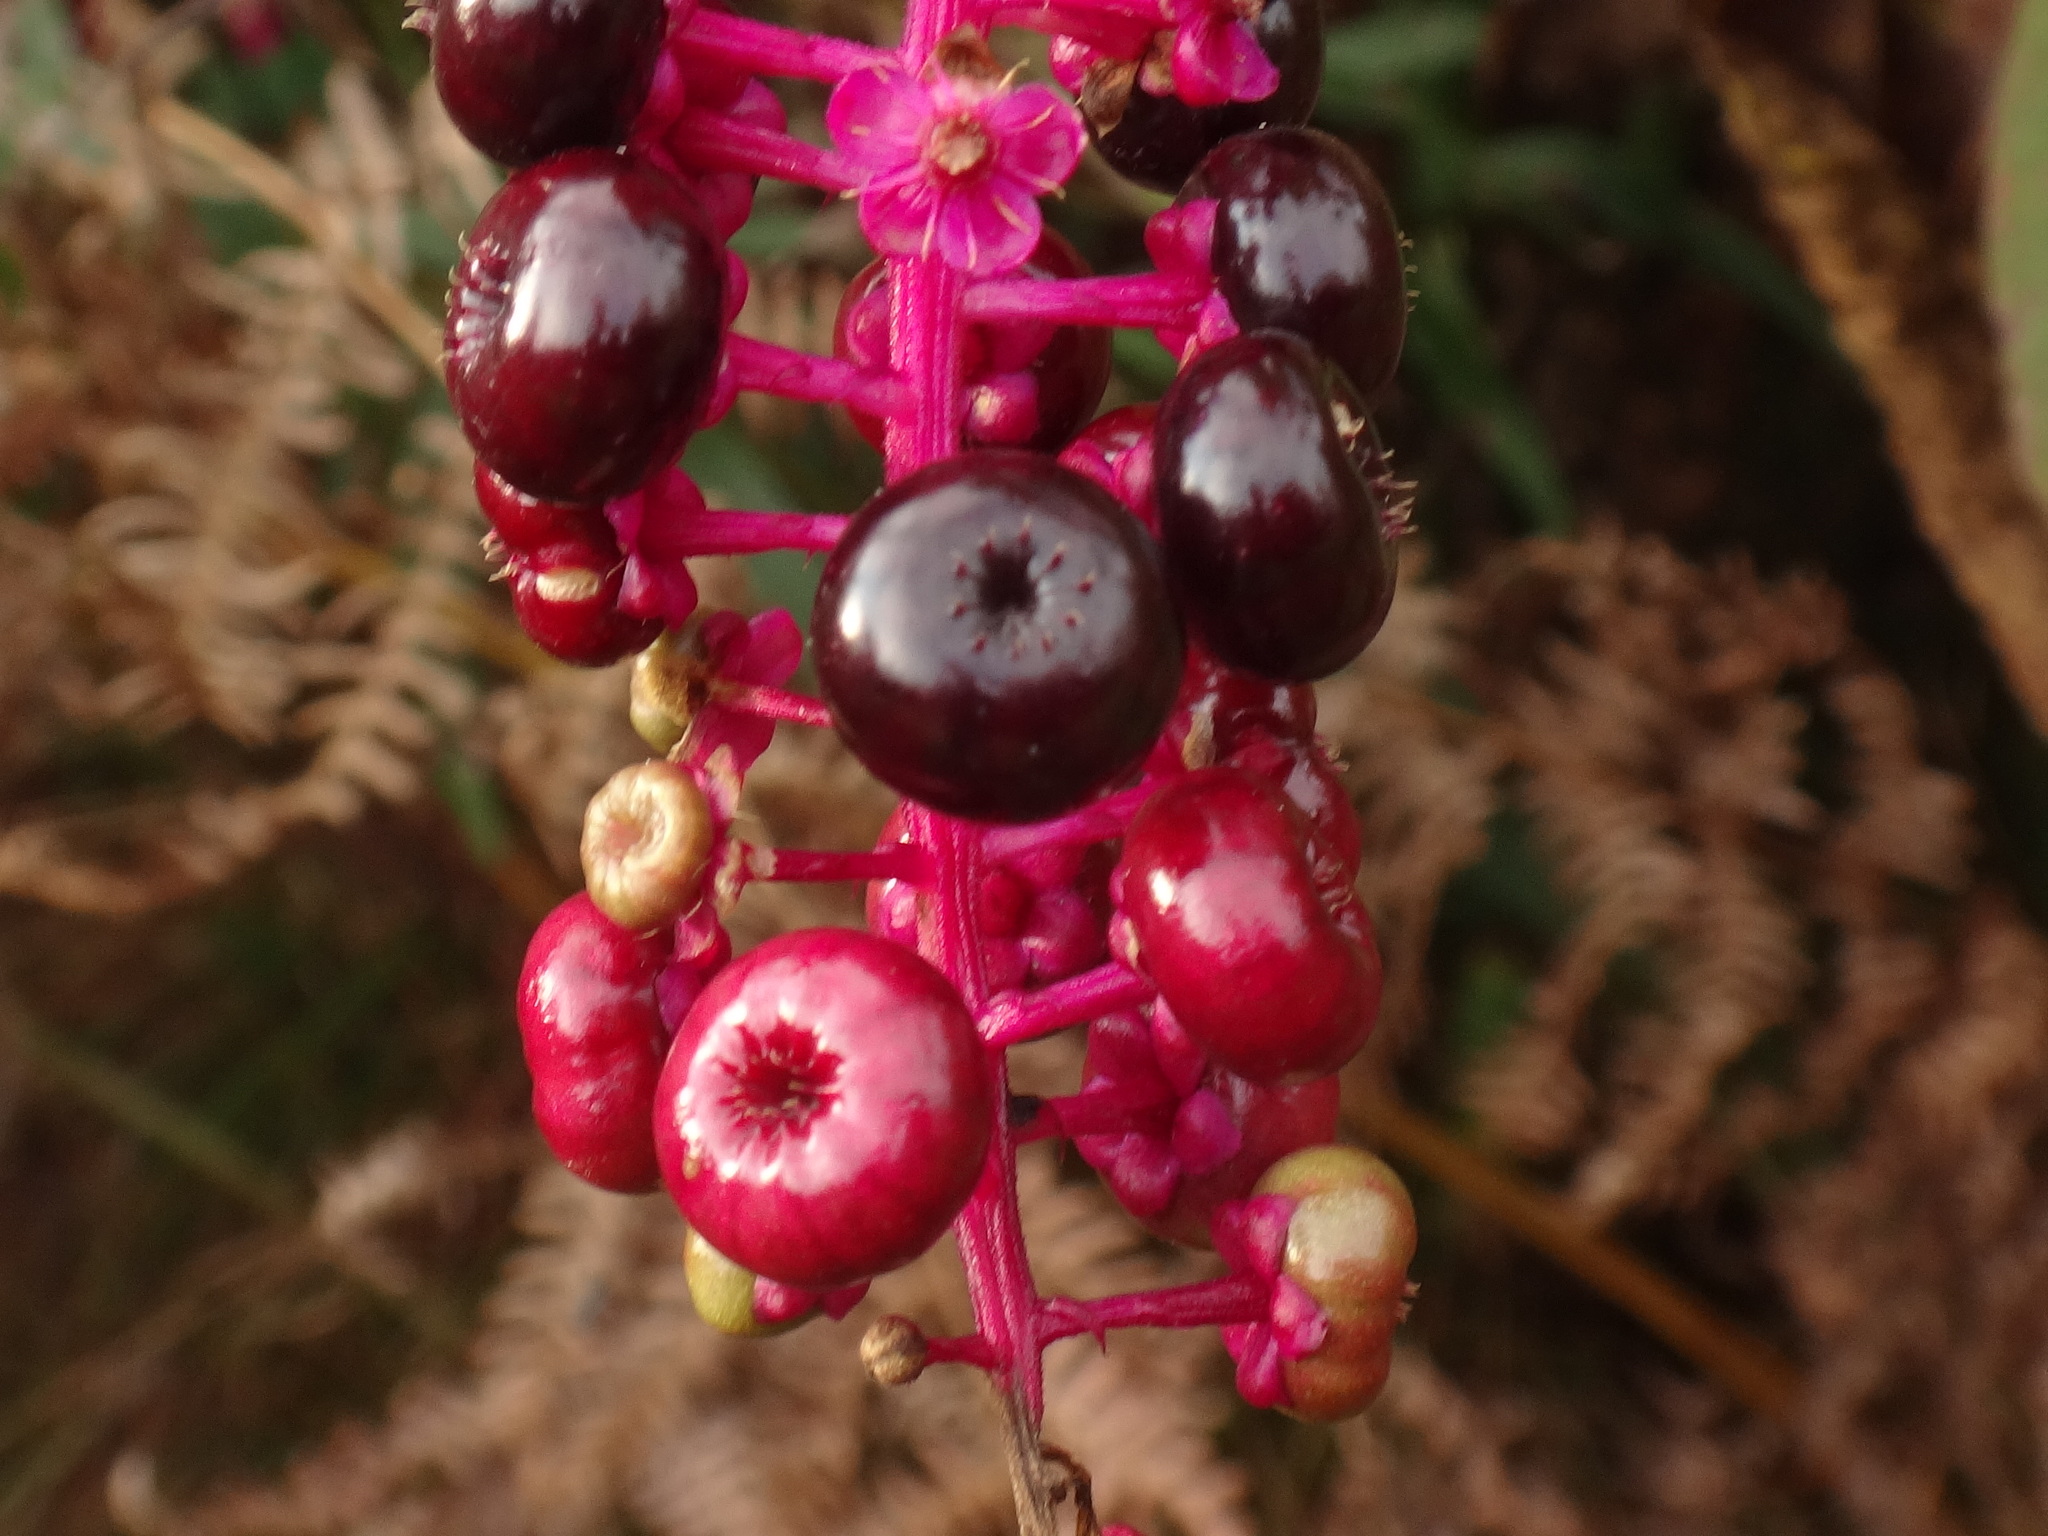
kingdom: Plantae
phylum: Tracheophyta
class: Magnoliopsida
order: Caryophyllales
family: Phytolaccaceae
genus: Phytolacca
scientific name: Phytolacca americana
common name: American pokeweed
